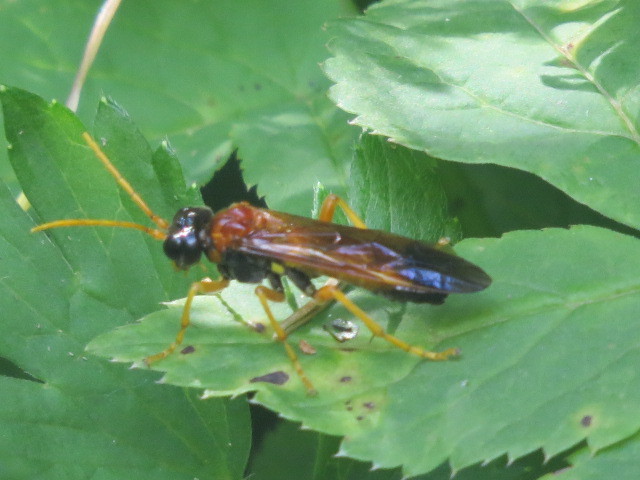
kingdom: Animalia
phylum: Arthropoda
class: Insecta
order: Hymenoptera
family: Tenthredinidae
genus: Tenthredo
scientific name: Tenthredo campestris
